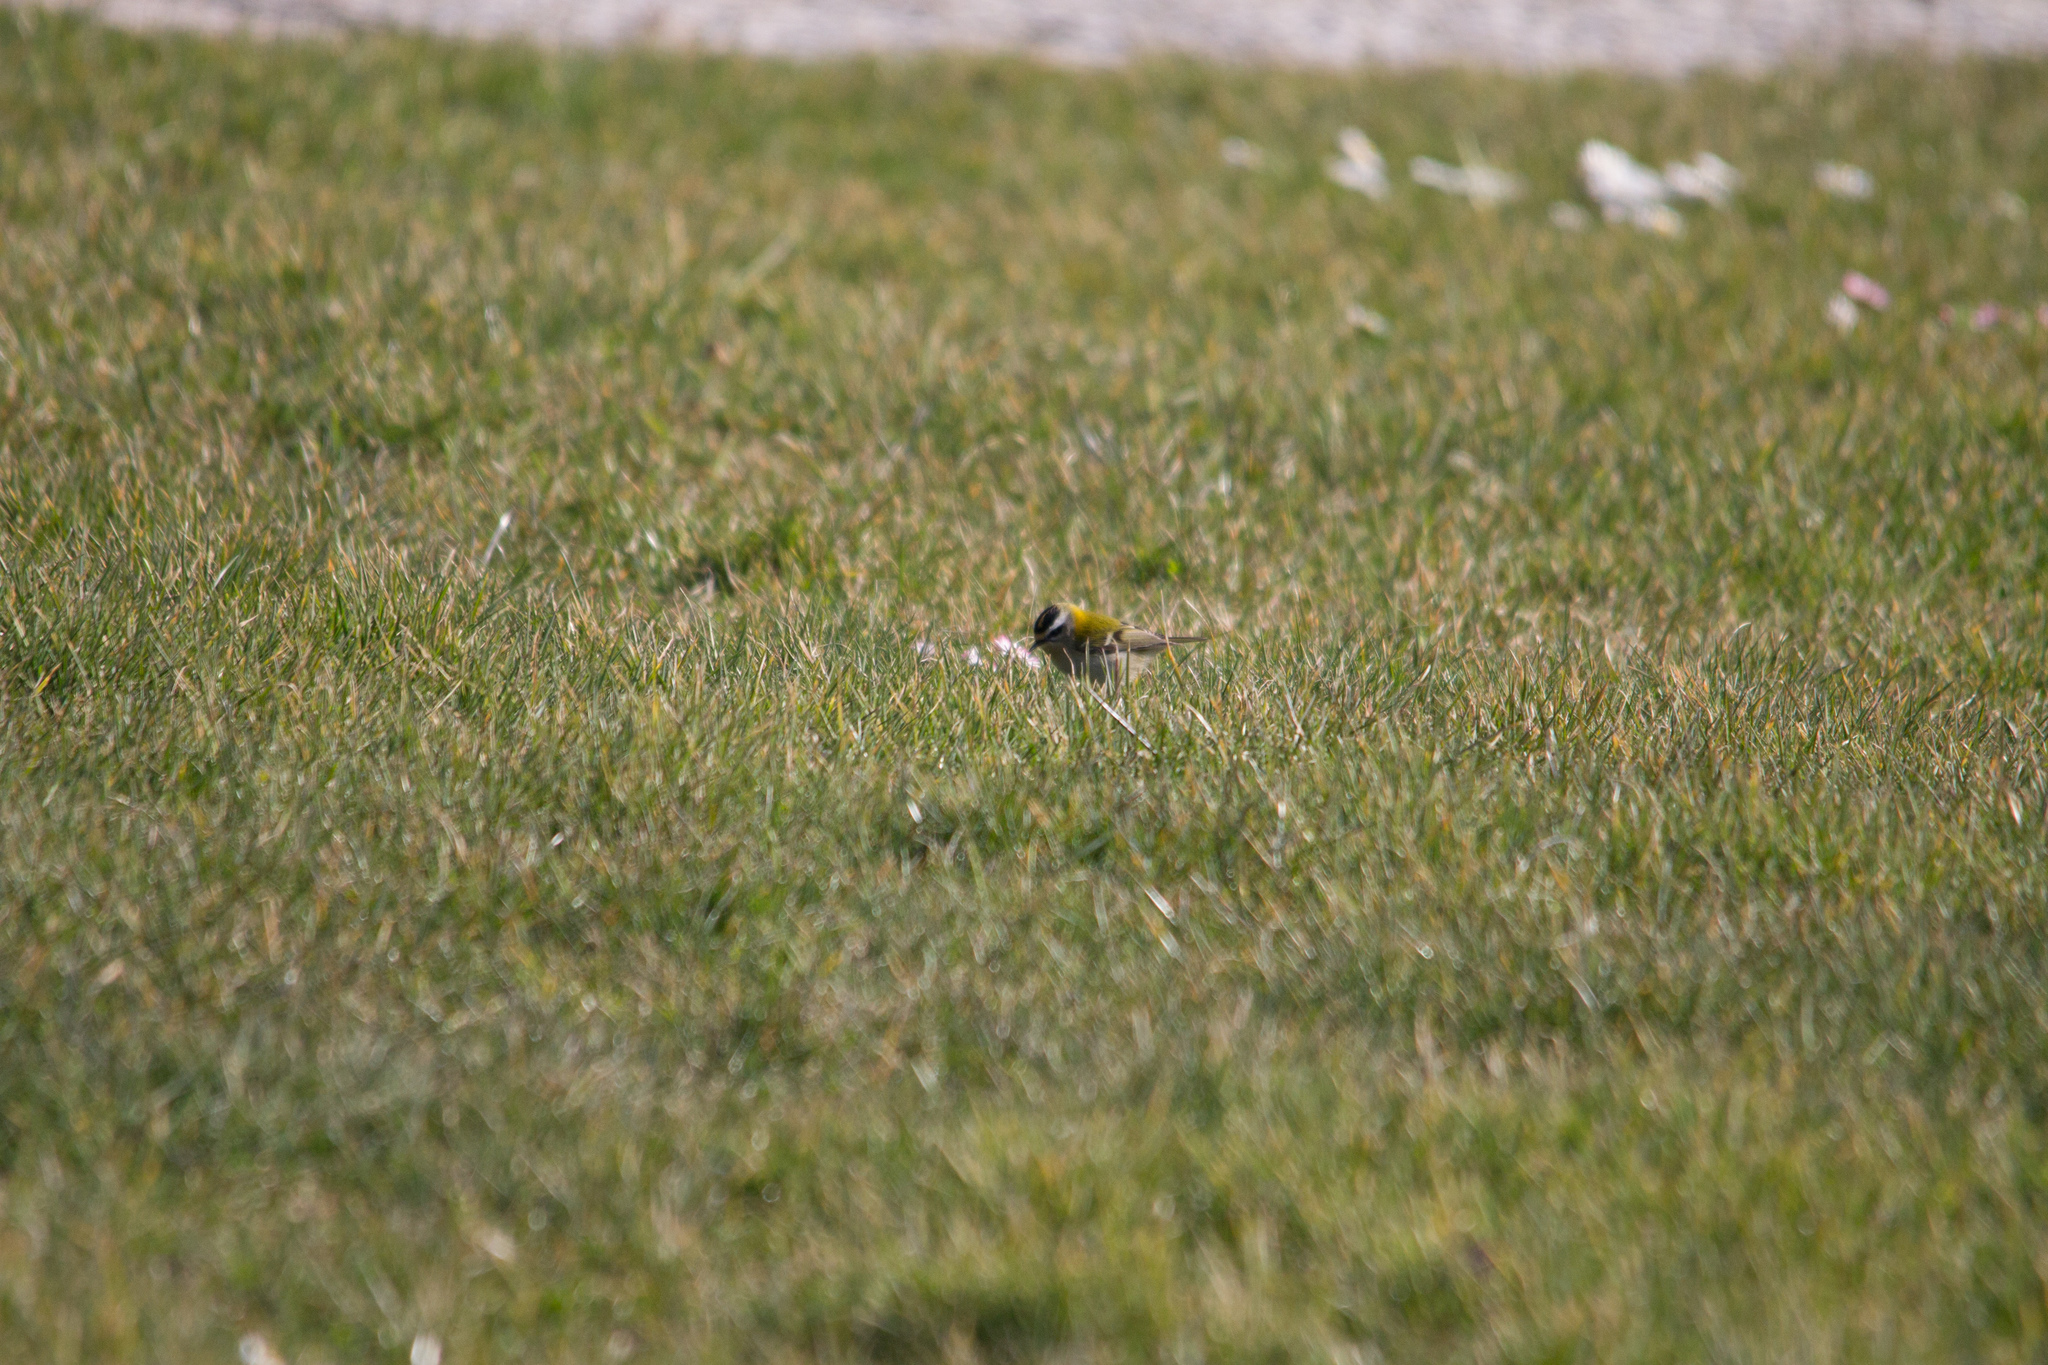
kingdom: Animalia
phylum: Chordata
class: Aves
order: Passeriformes
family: Regulidae
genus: Regulus
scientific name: Regulus ignicapilla
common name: Firecrest
